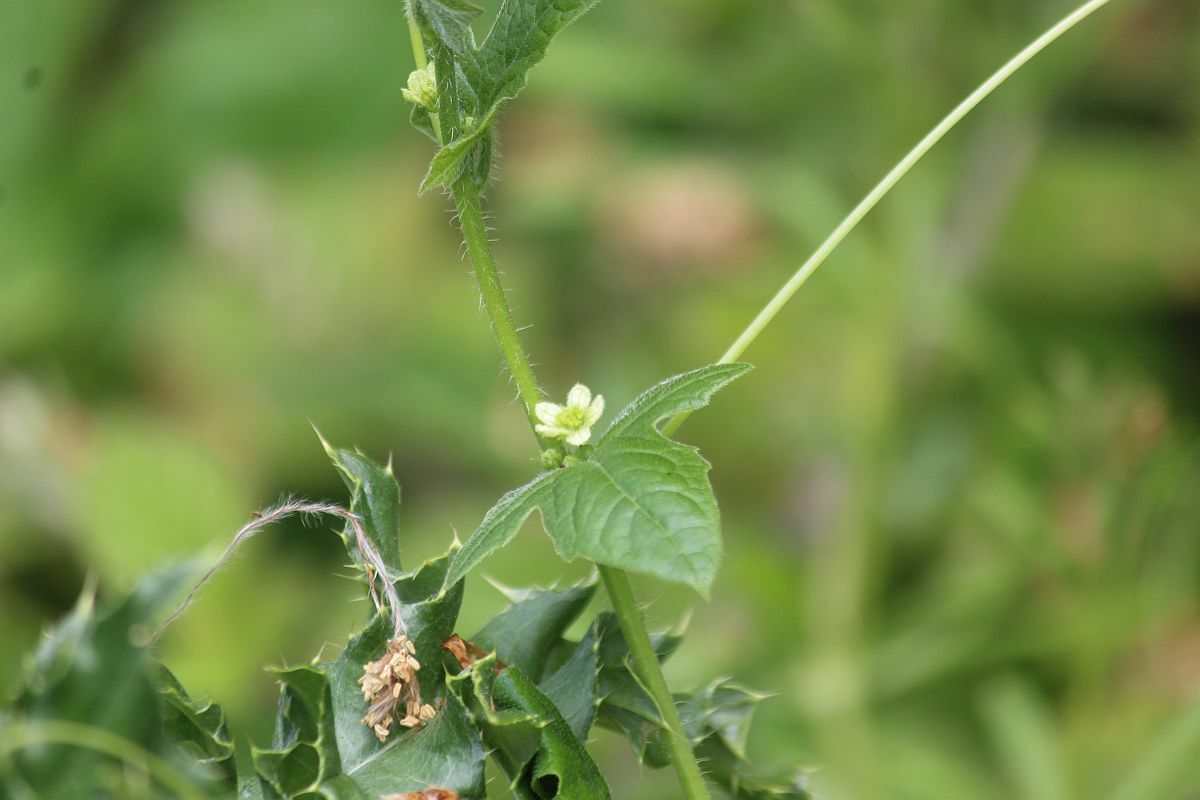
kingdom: Plantae
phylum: Tracheophyta
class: Magnoliopsida
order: Cucurbitales
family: Cucurbitaceae
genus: Bryonia
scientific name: Bryonia cretica
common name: Cretan bryony
